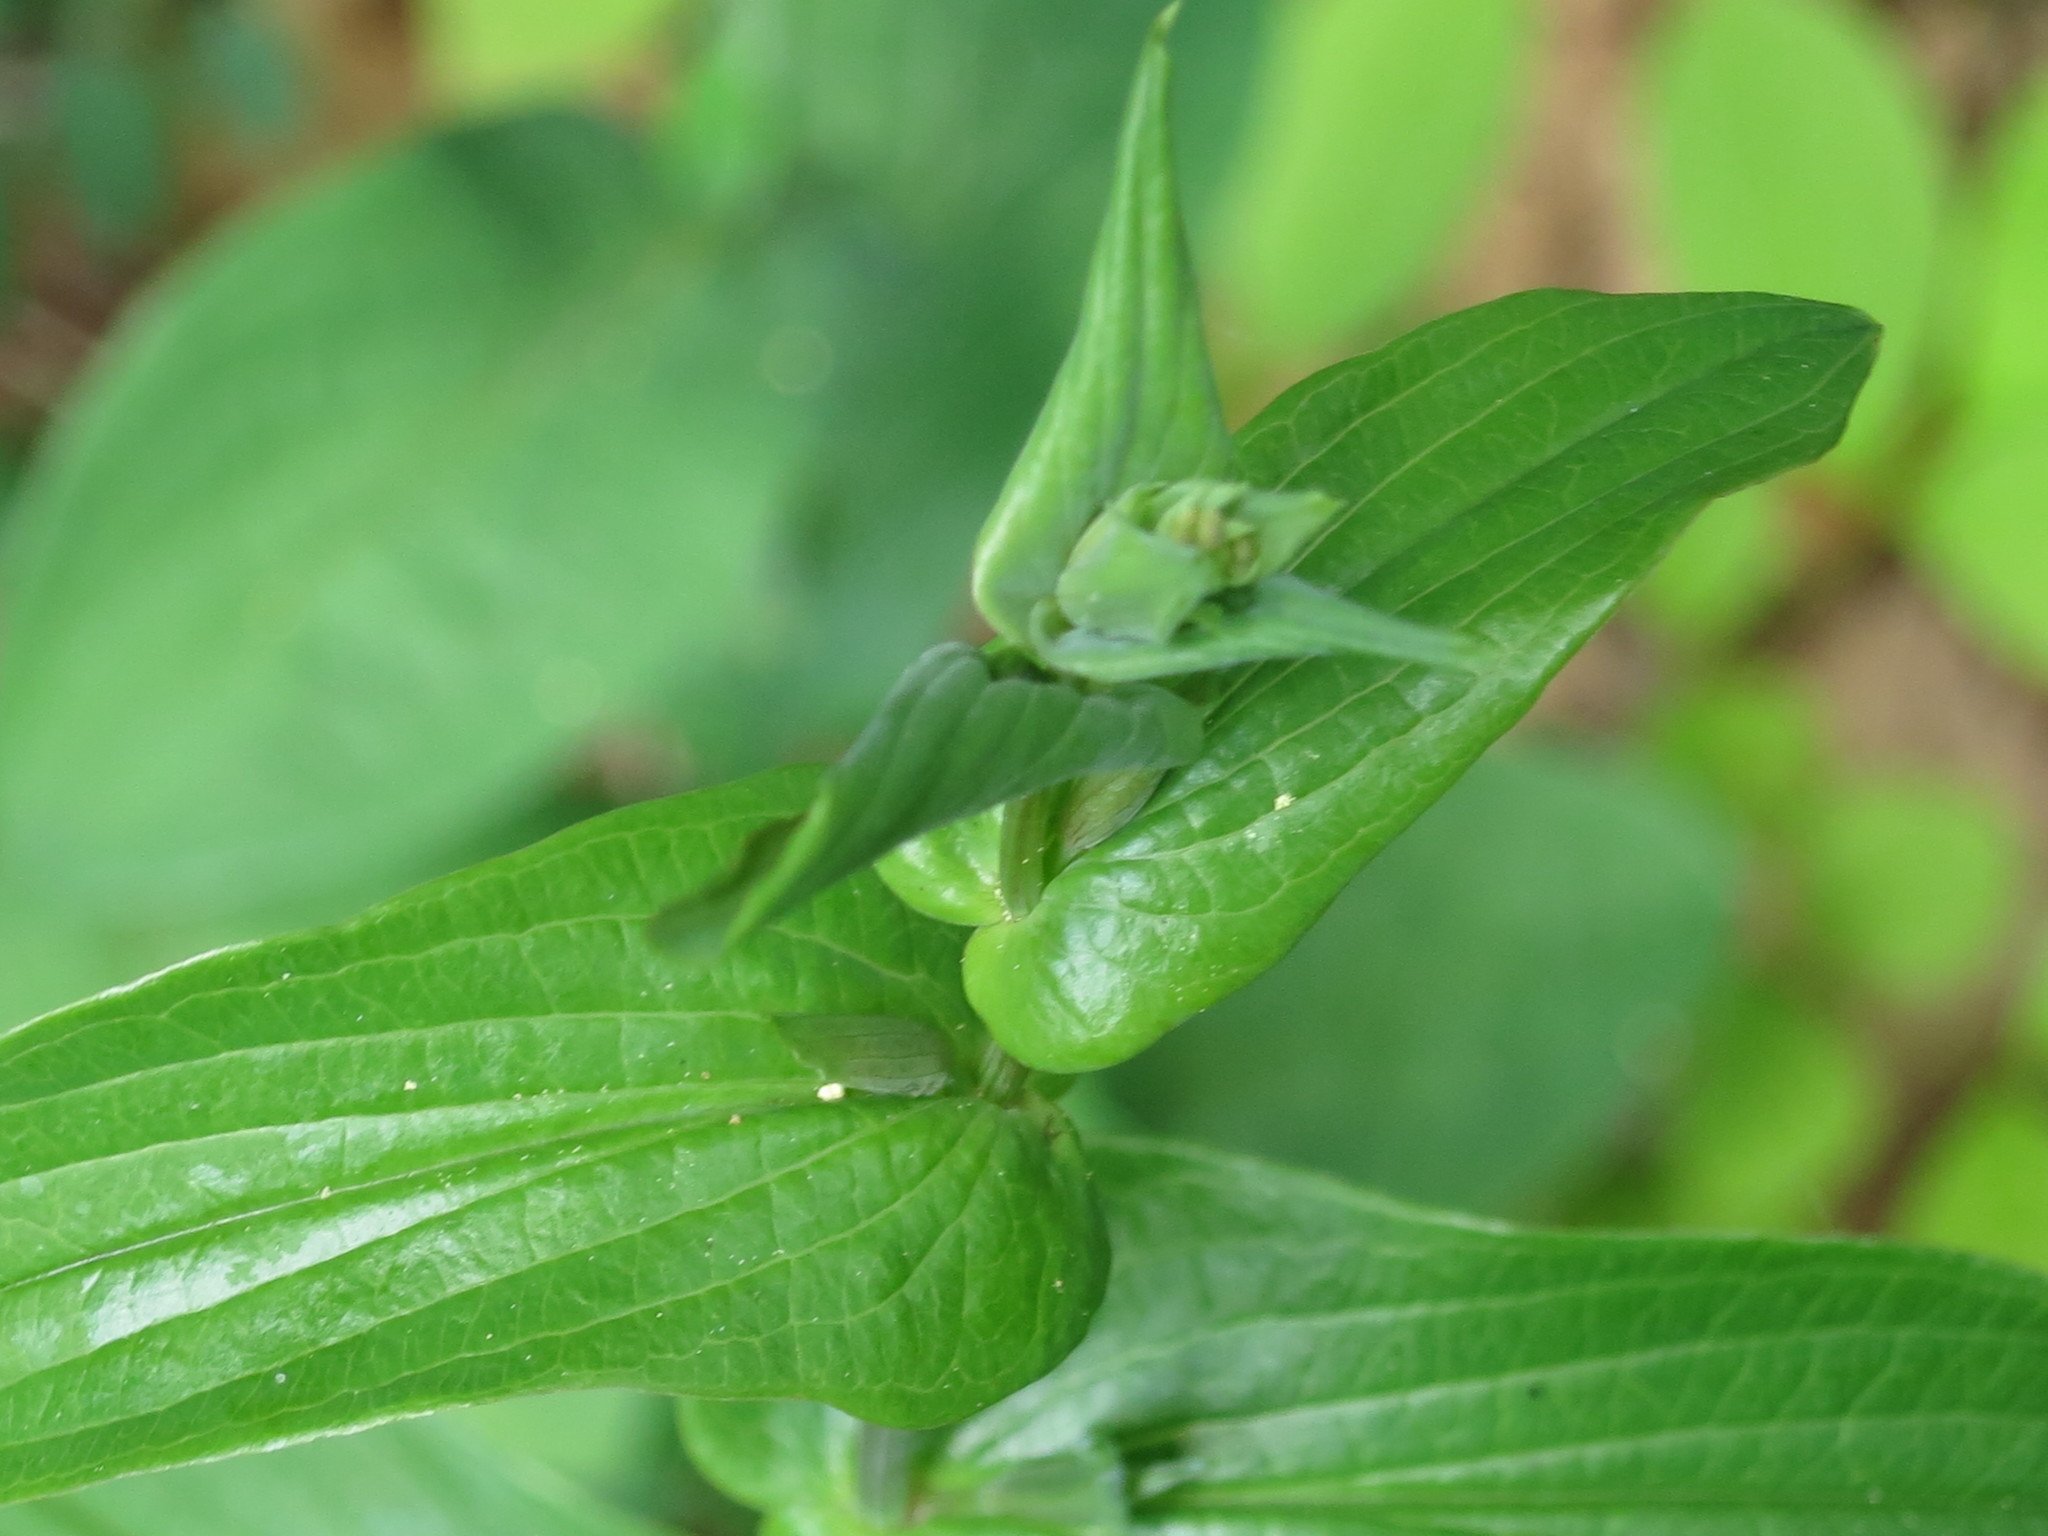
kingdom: Plantae
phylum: Tracheophyta
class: Magnoliopsida
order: Apiales
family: Apiaceae
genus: Bupleurum
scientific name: Bupleurum longiradiatum
